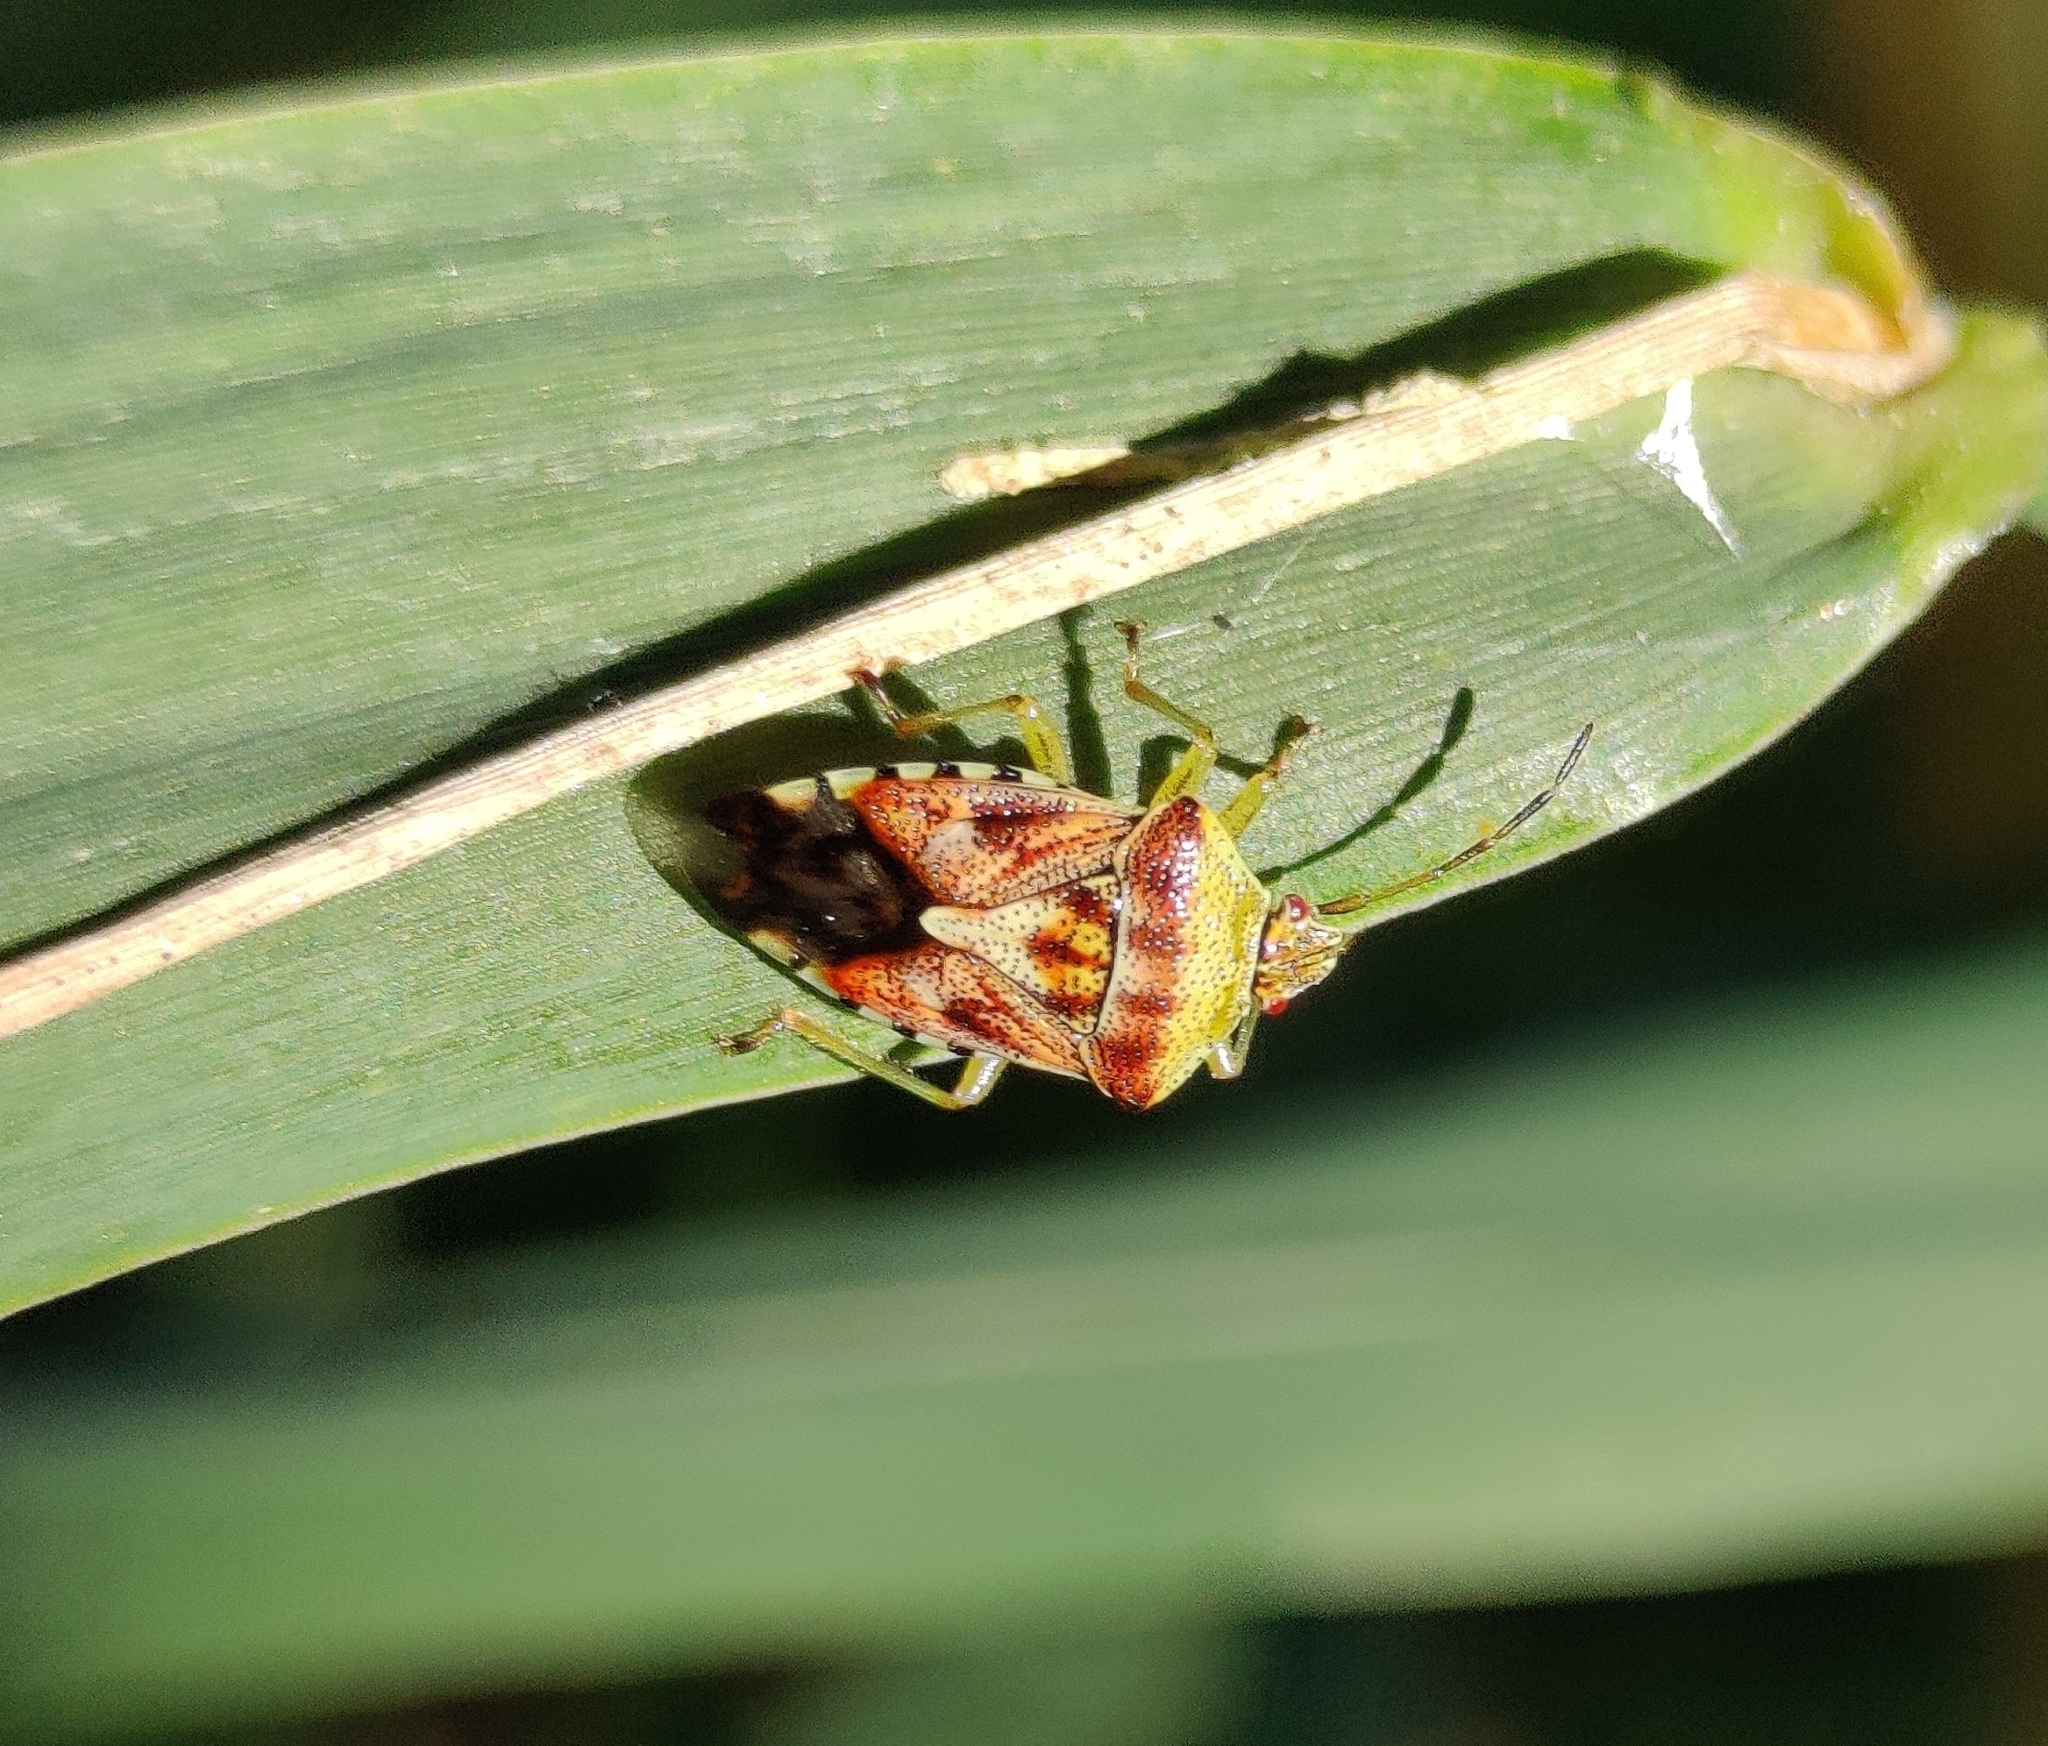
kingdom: Animalia
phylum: Arthropoda
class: Insecta
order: Hemiptera
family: Acanthosomatidae
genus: Elasmucha
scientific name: Elasmucha grisea
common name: Parent bug
